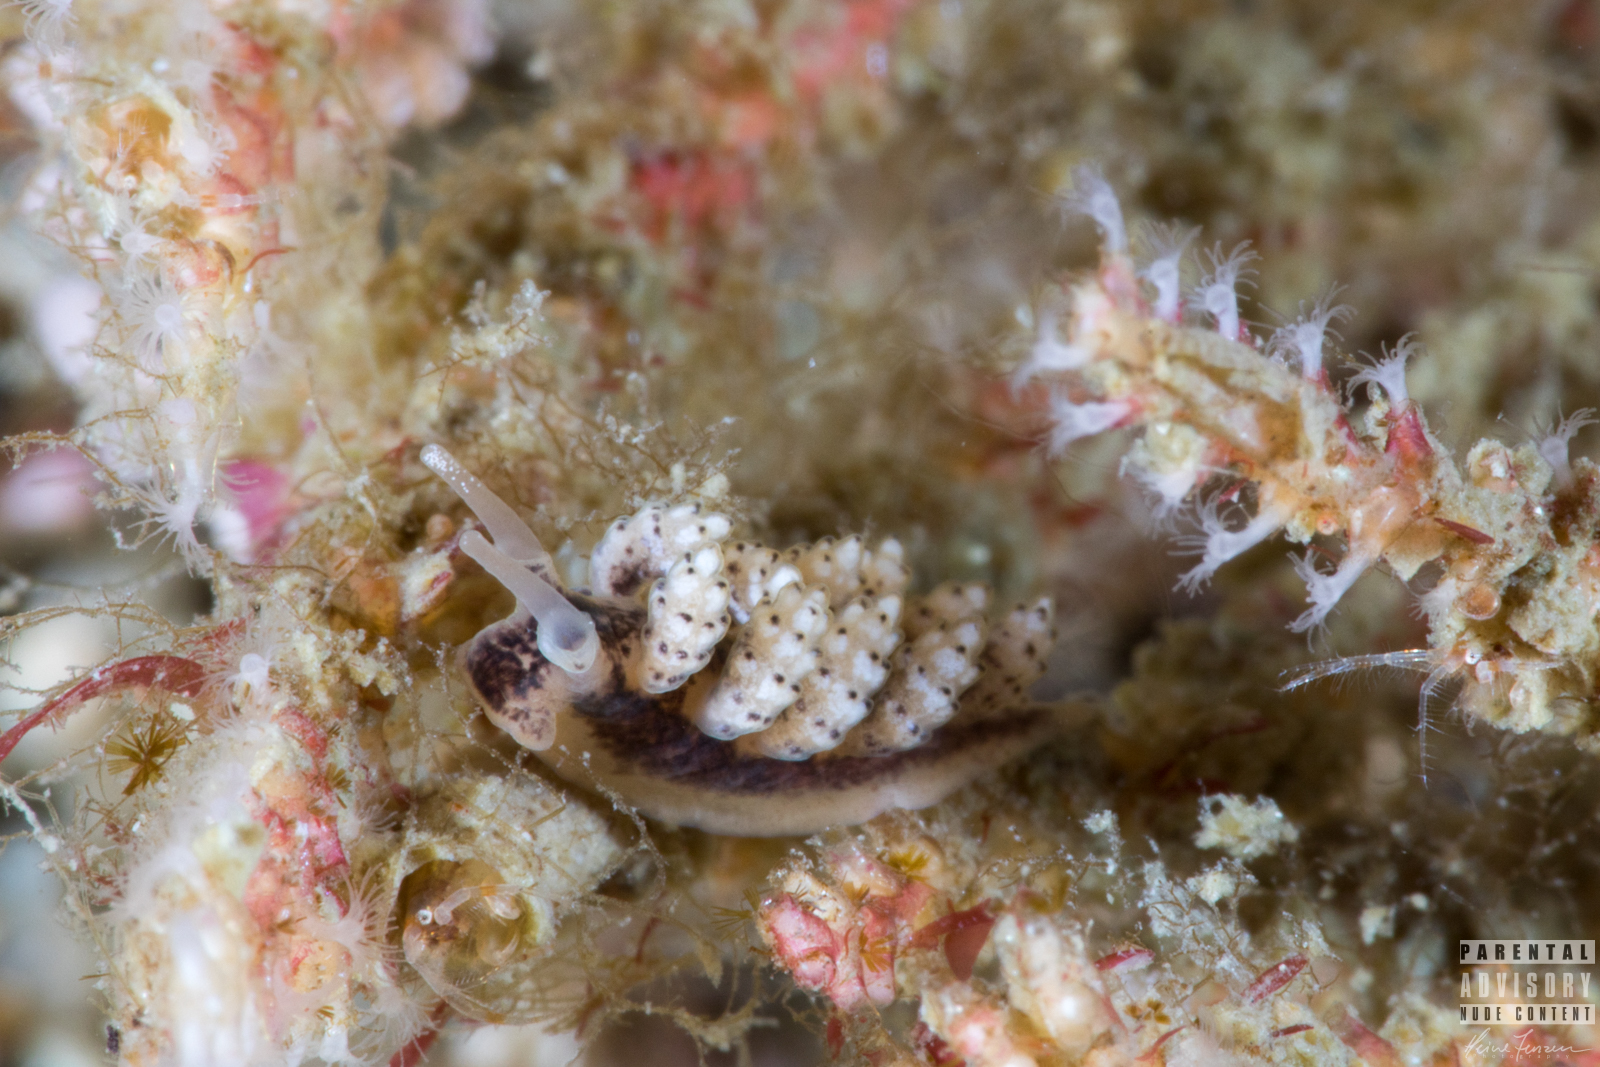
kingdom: Animalia
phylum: Mollusca
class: Gastropoda
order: Nudibranchia
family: Dotidae
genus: Doto
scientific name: Doto coronata
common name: Coronate doto
